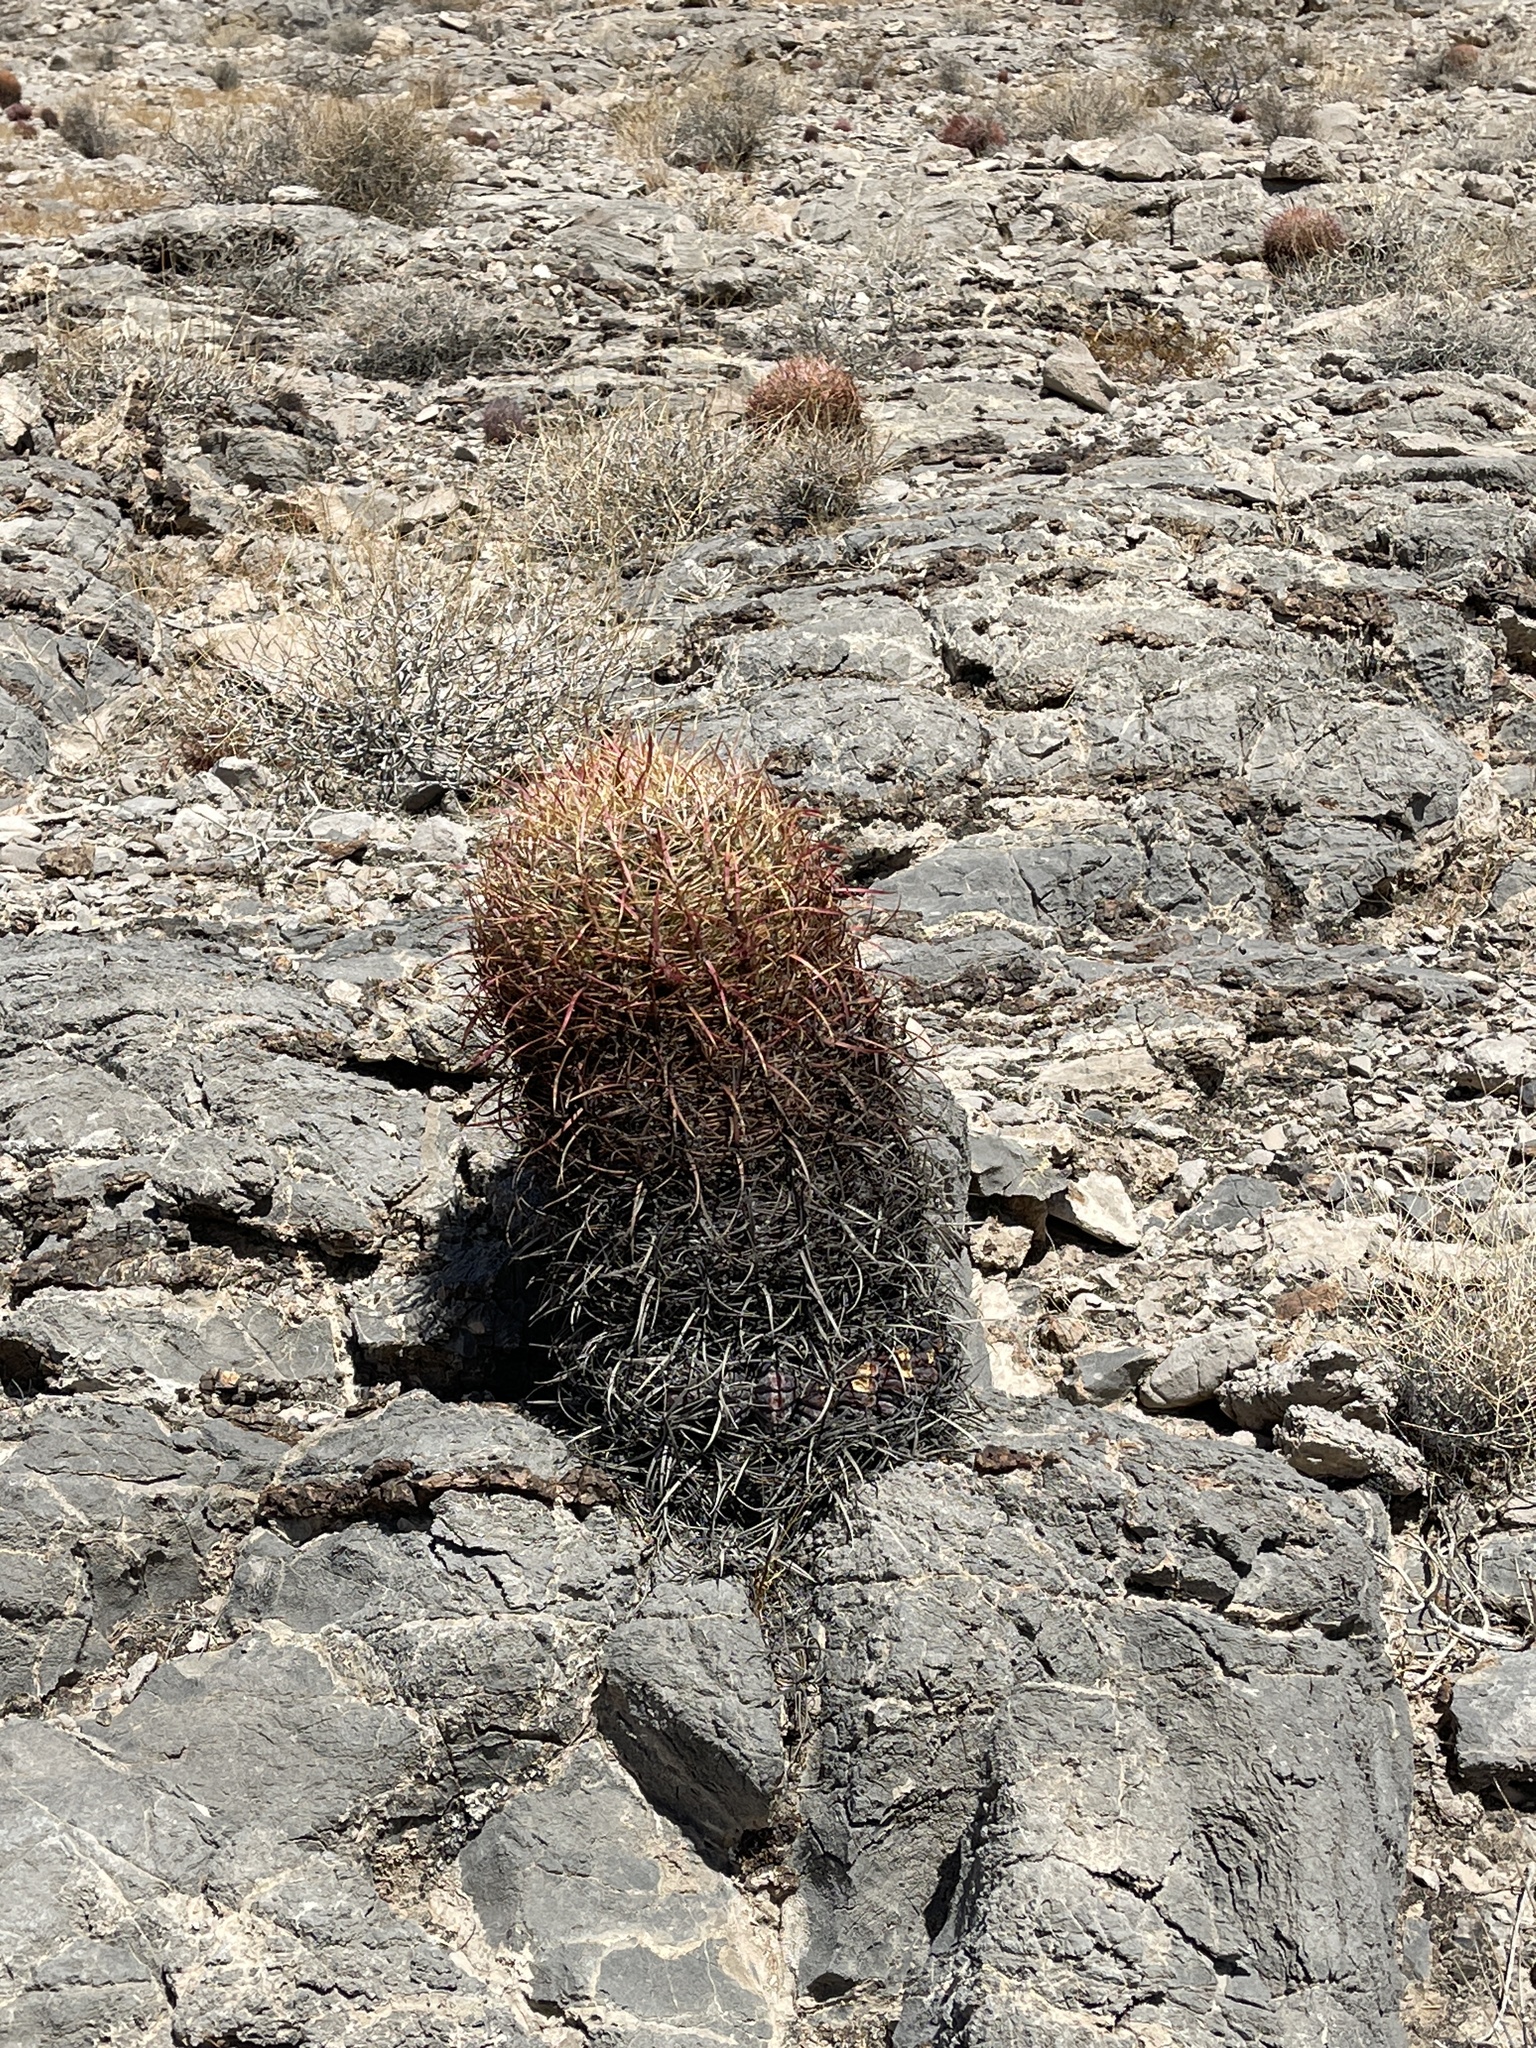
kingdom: Plantae
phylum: Tracheophyta
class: Magnoliopsida
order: Caryophyllales
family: Cactaceae
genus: Ferocactus
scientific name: Ferocactus cylindraceus
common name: California barrel cactus
